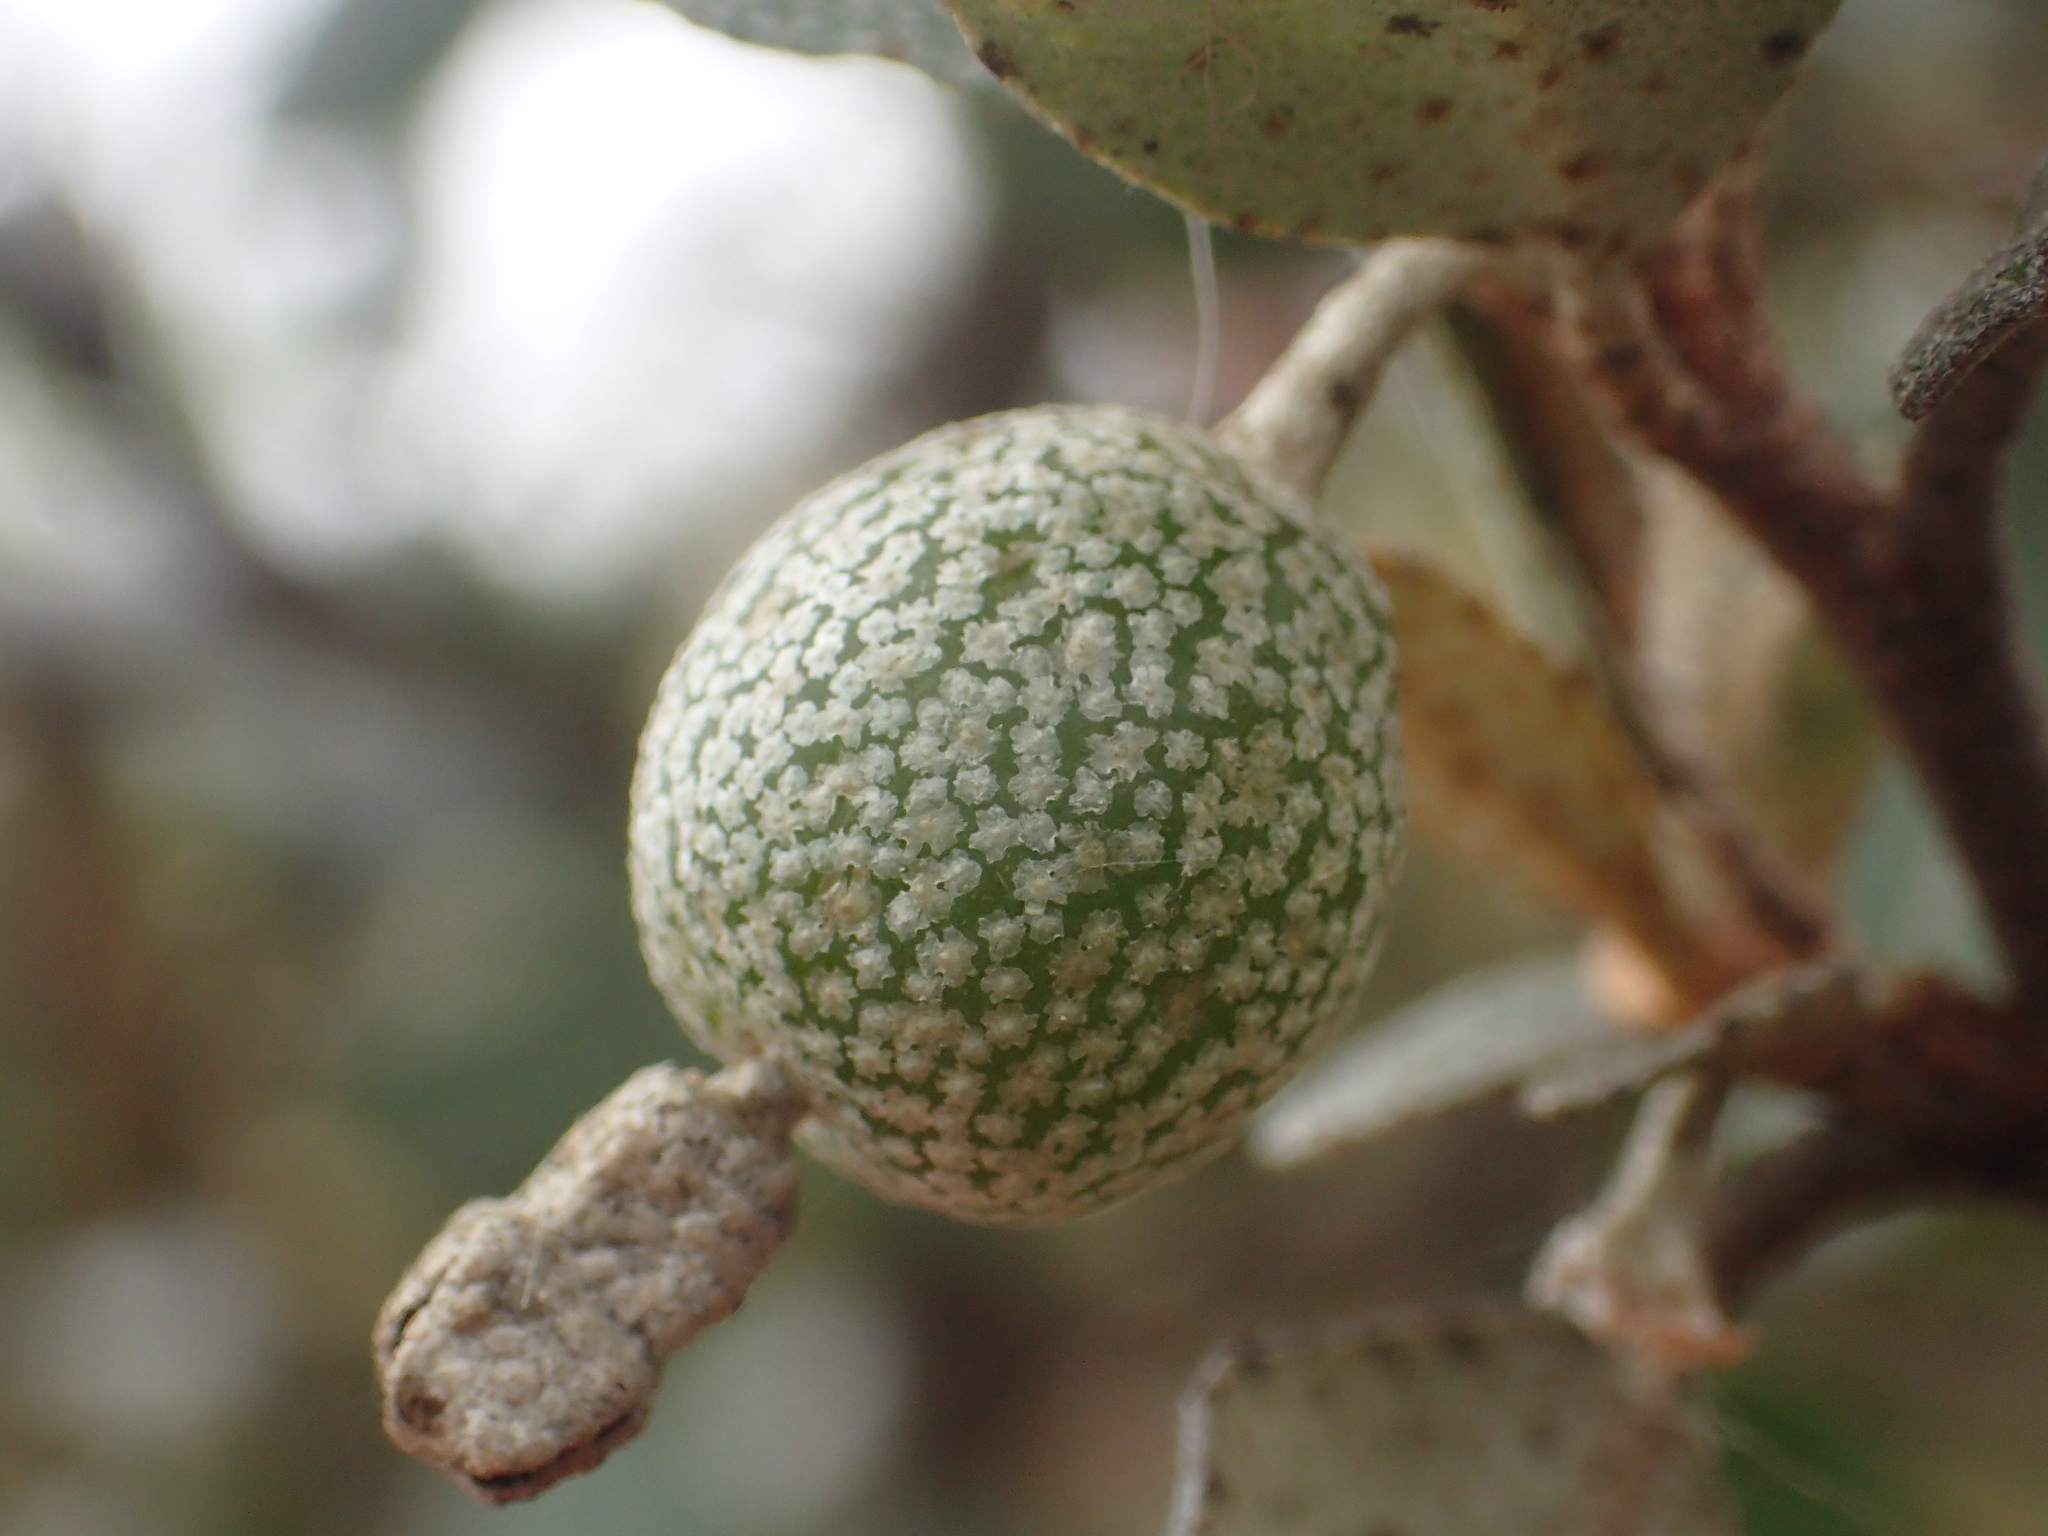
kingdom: Plantae
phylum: Tracheophyta
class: Magnoliopsida
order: Rosales
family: Elaeagnaceae
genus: Elaeagnus
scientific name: Elaeagnus oldhamii
